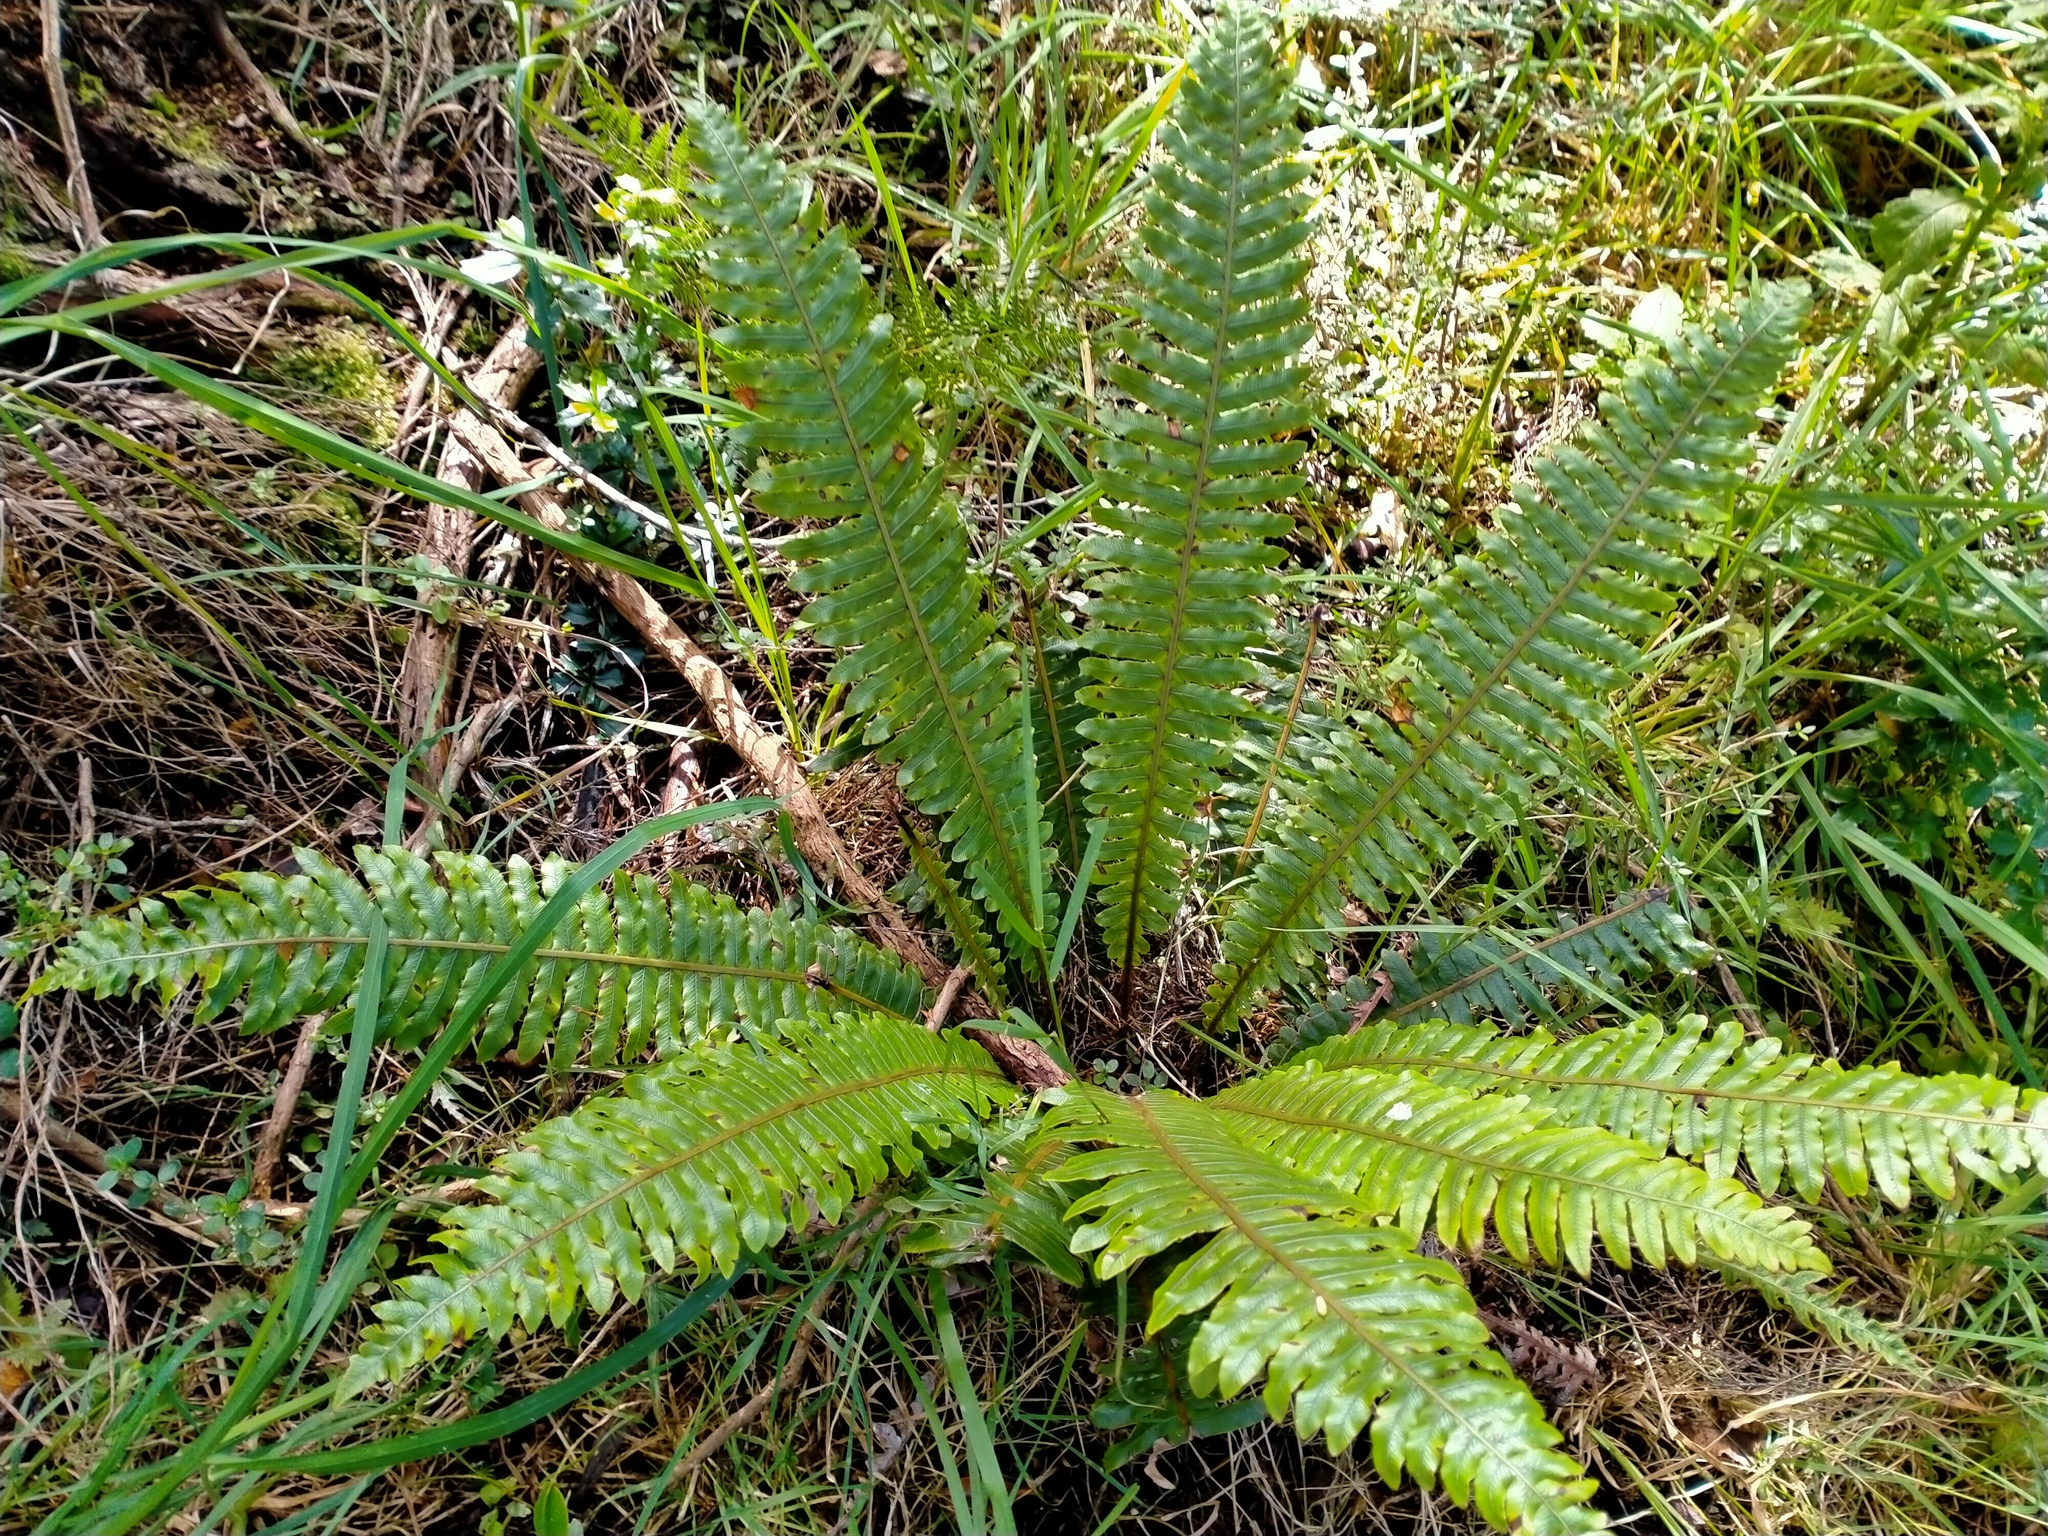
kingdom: Plantae
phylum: Tracheophyta
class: Polypodiopsida
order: Polypodiales
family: Blechnaceae
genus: Lomaria
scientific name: Lomaria discolor
